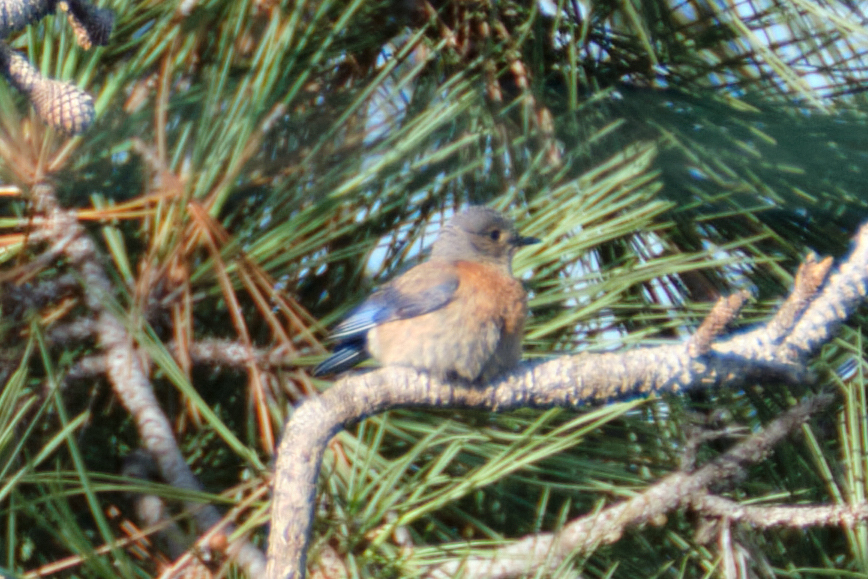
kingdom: Animalia
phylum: Chordata
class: Aves
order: Passeriformes
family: Turdidae
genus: Sialia
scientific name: Sialia mexicana
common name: Western bluebird
